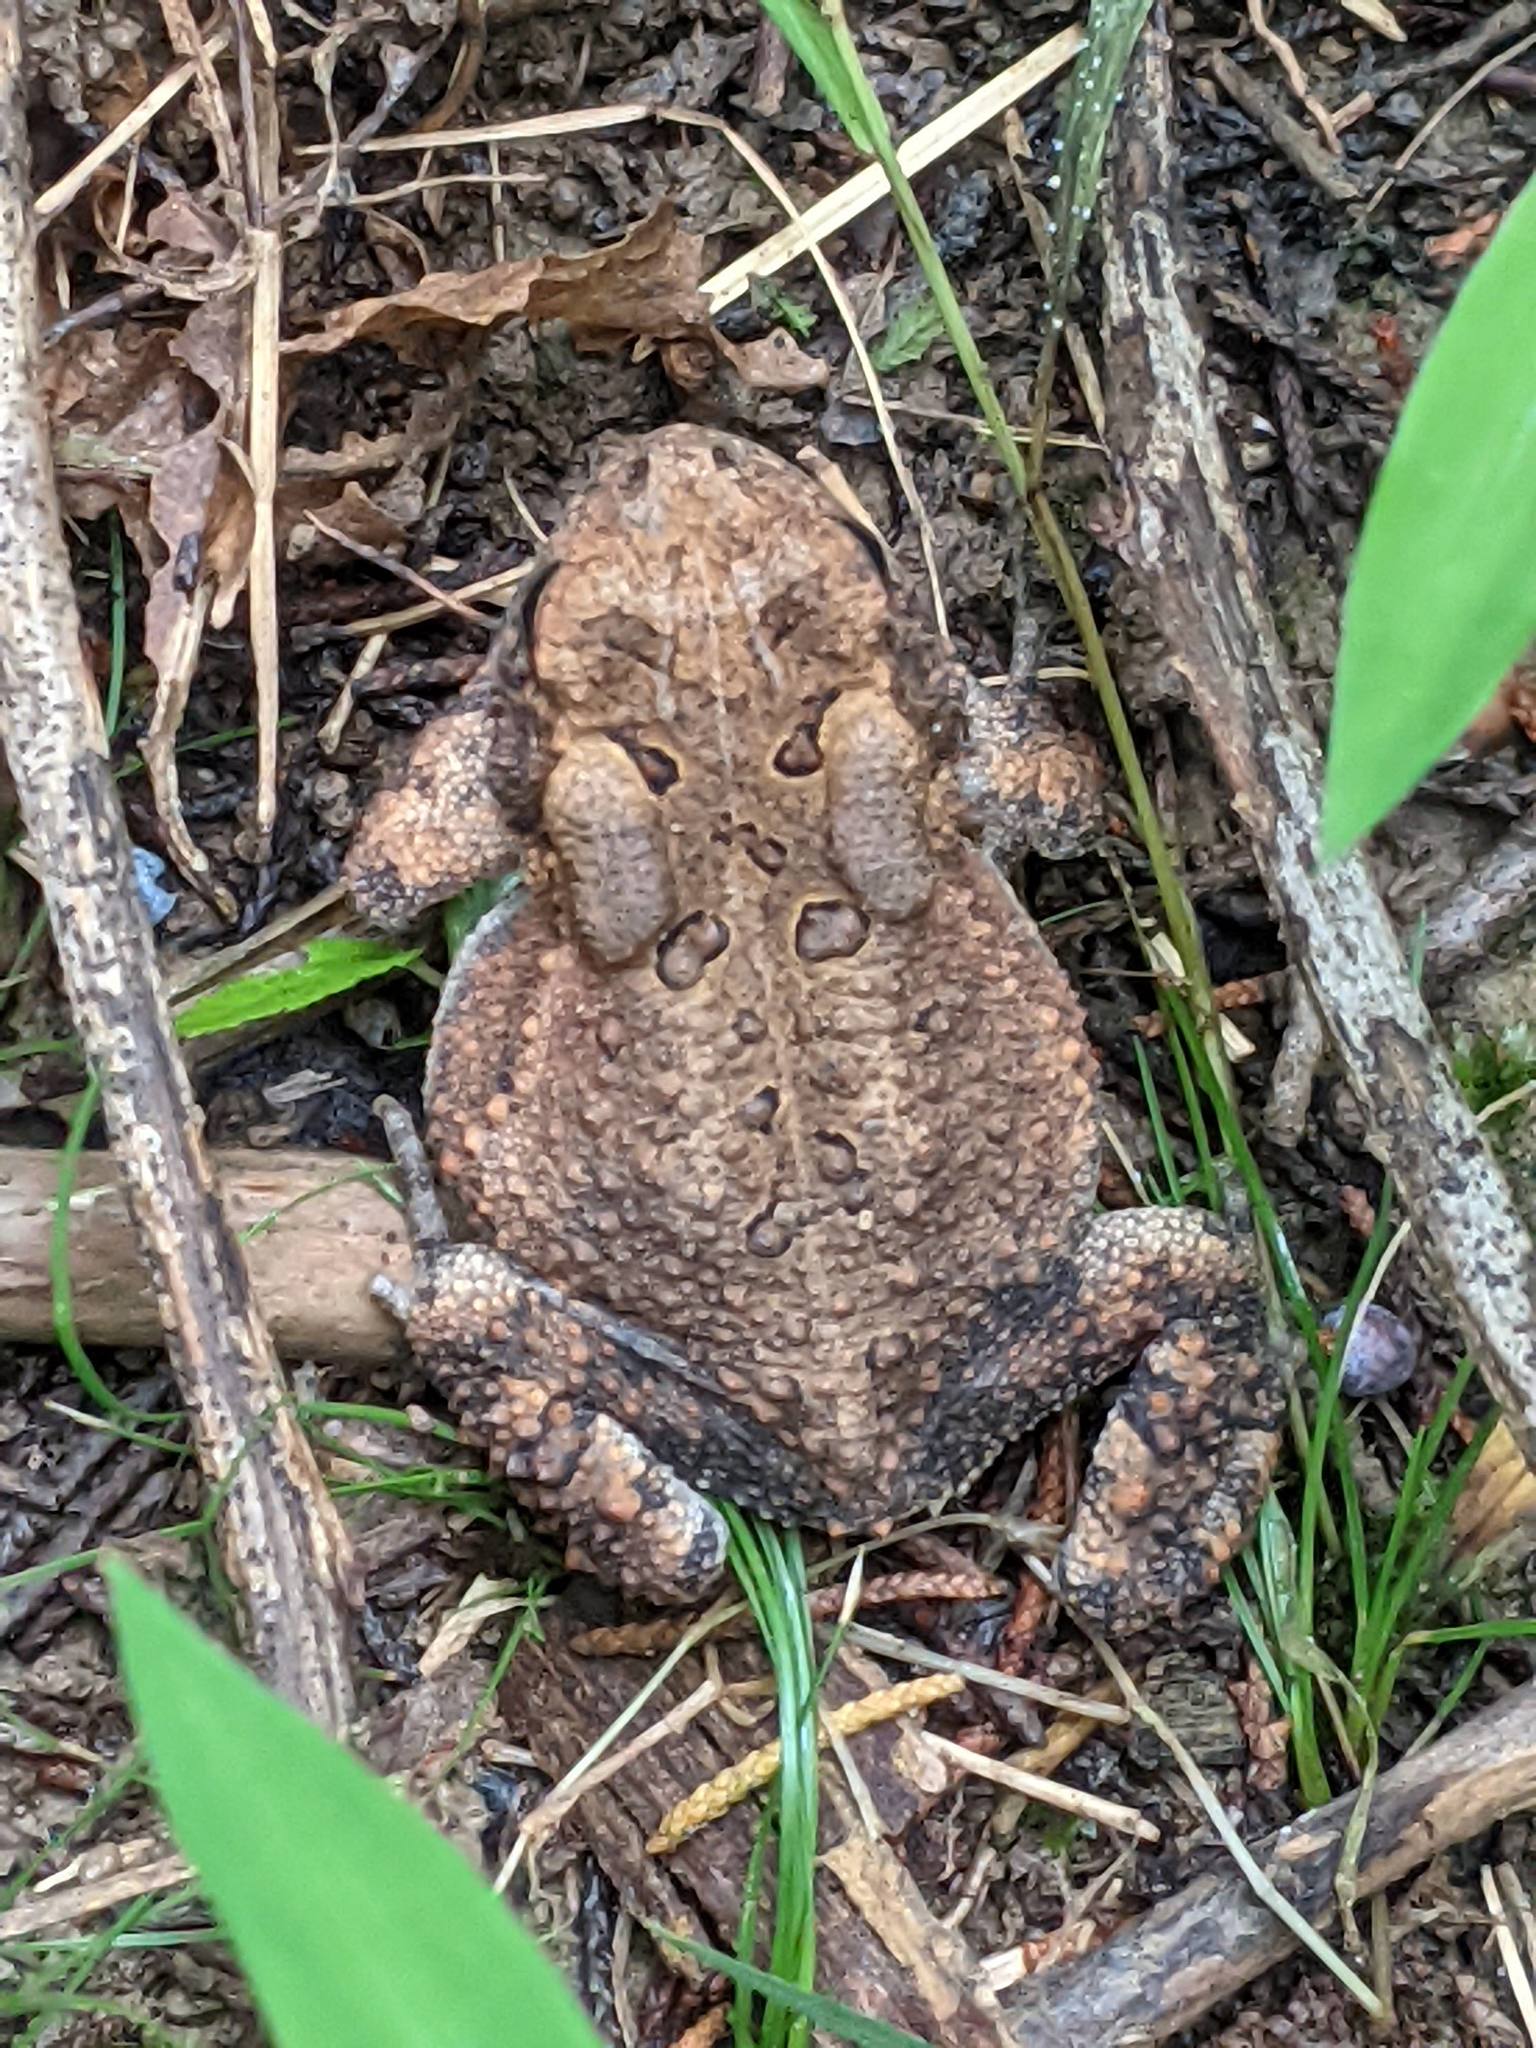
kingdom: Animalia
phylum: Chordata
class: Amphibia
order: Anura
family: Bufonidae
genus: Anaxyrus
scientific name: Anaxyrus americanus
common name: American toad
